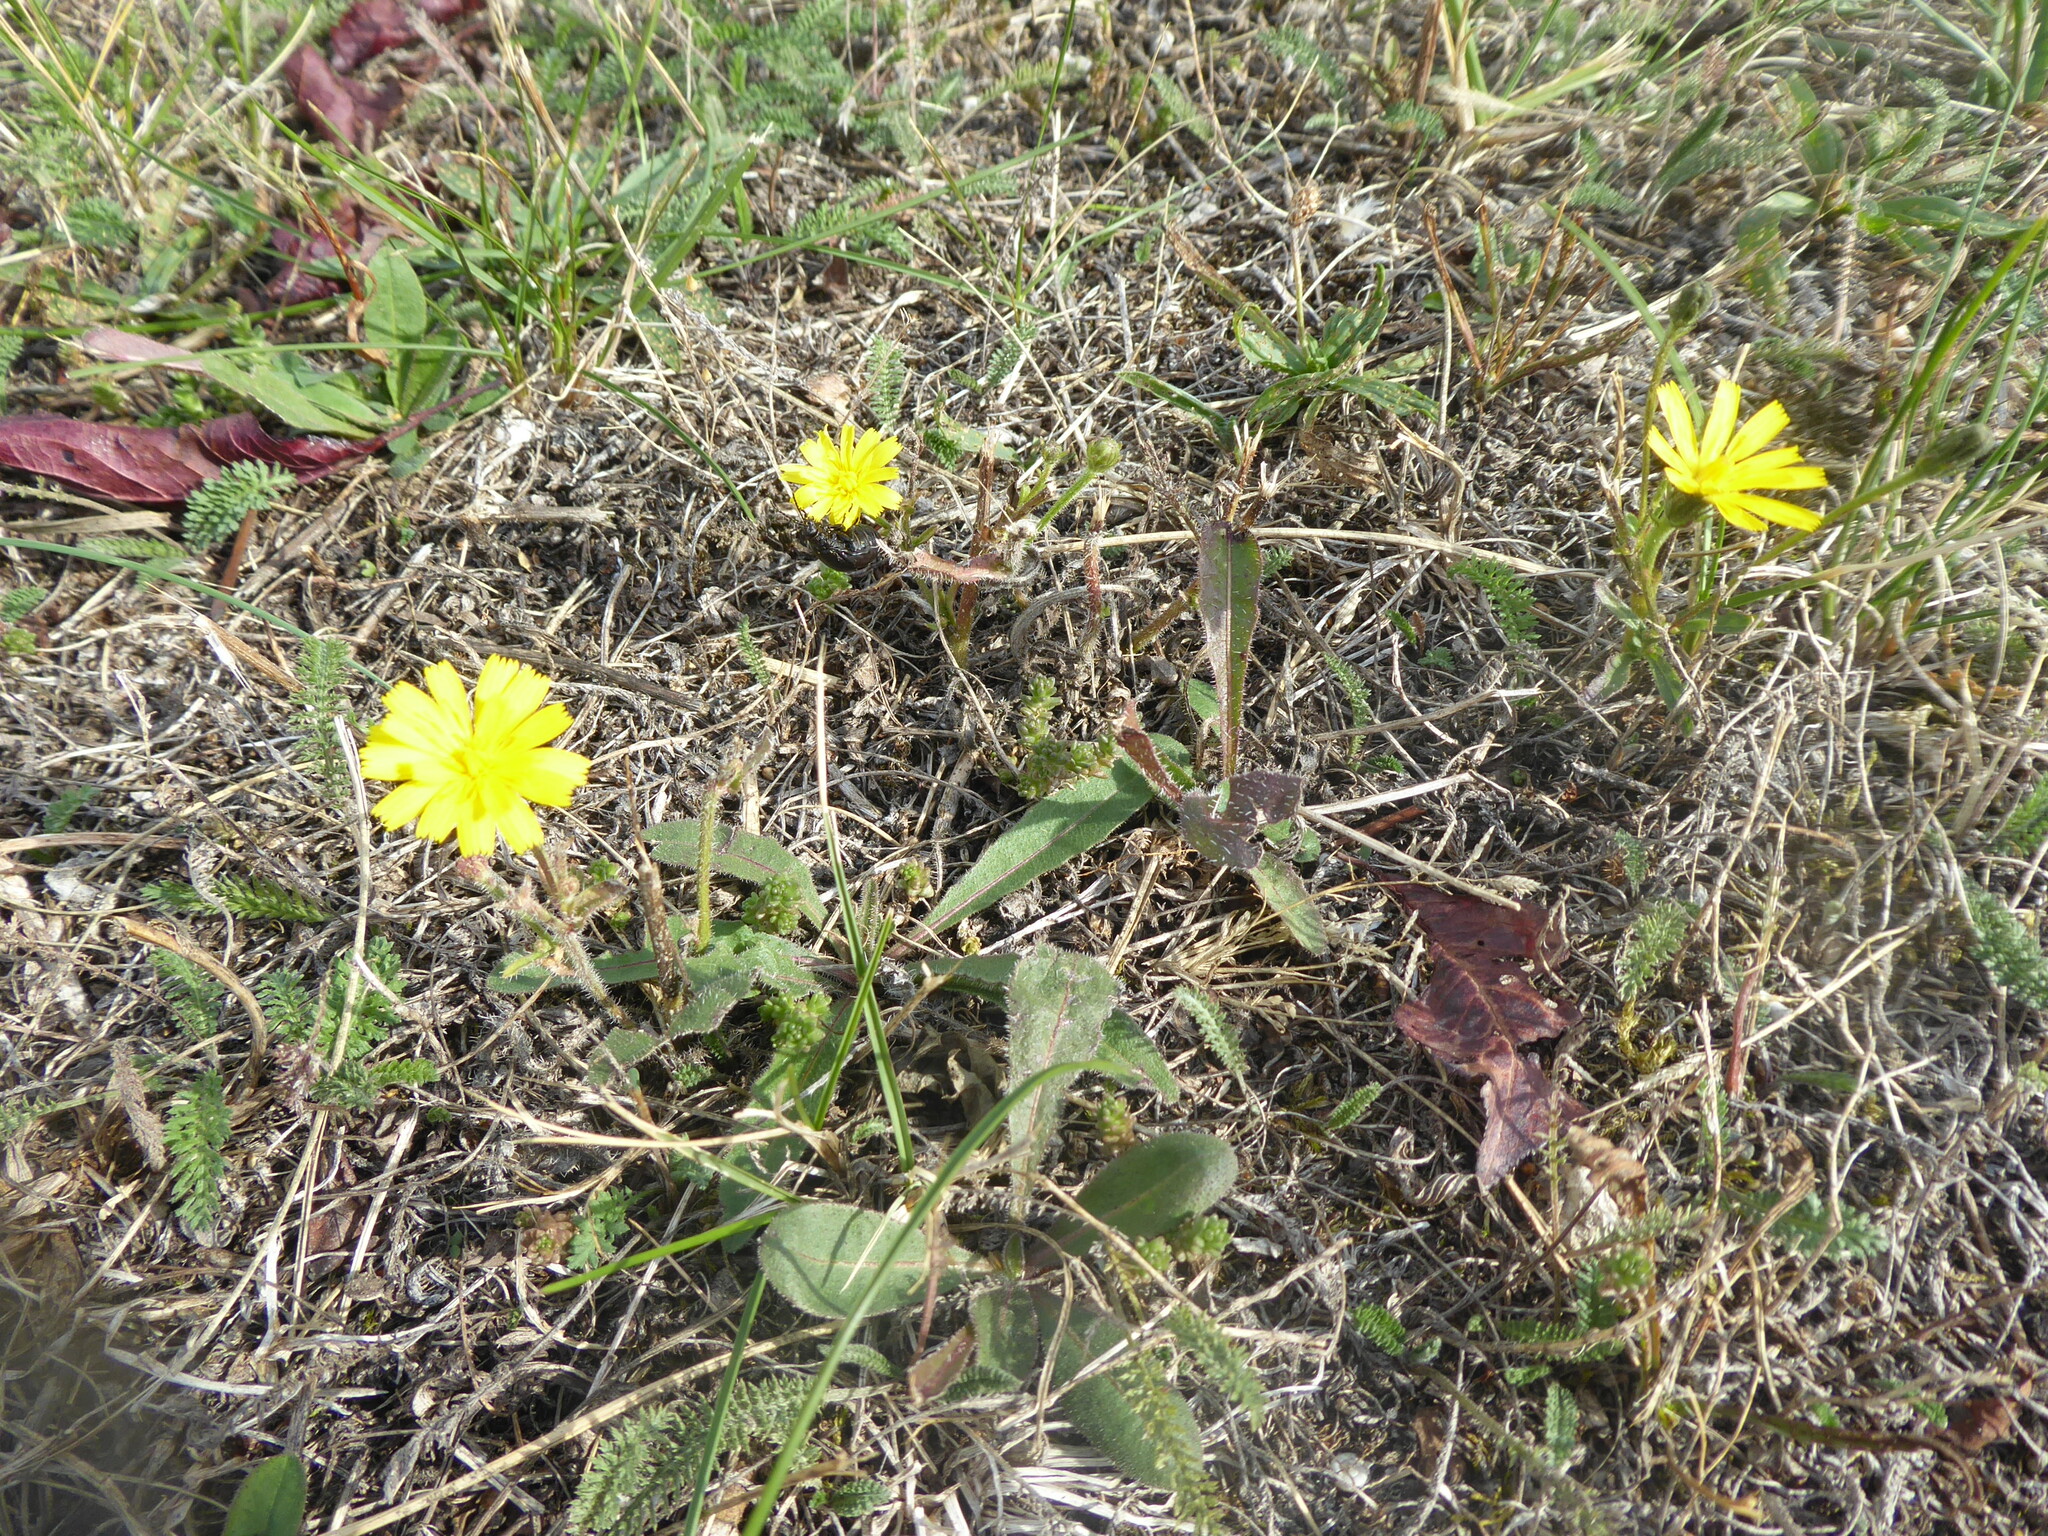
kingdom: Plantae
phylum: Tracheophyta
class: Magnoliopsida
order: Asterales
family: Asteraceae
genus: Picris
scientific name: Picris hieracioides
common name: Hawkweed oxtongue
